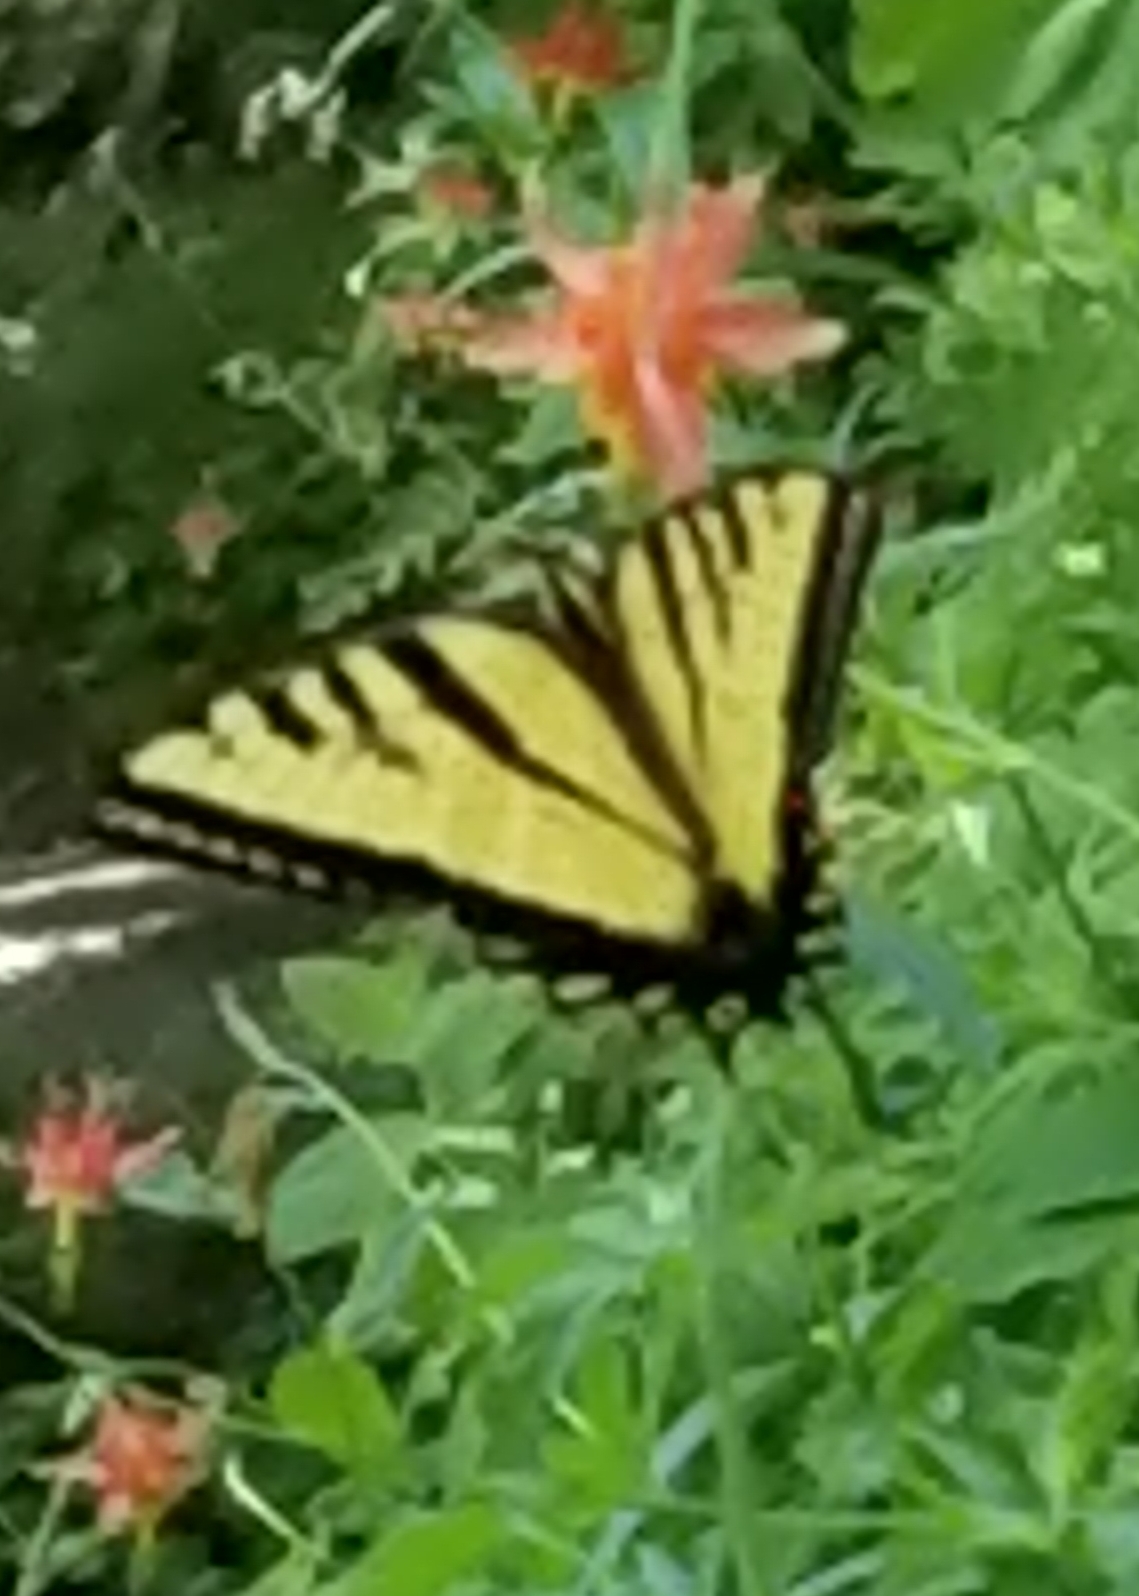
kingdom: Animalia
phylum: Arthropoda
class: Insecta
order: Lepidoptera
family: Papilionidae
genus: Papilio
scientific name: Papilio rutulus
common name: Western tiger swallowtail
